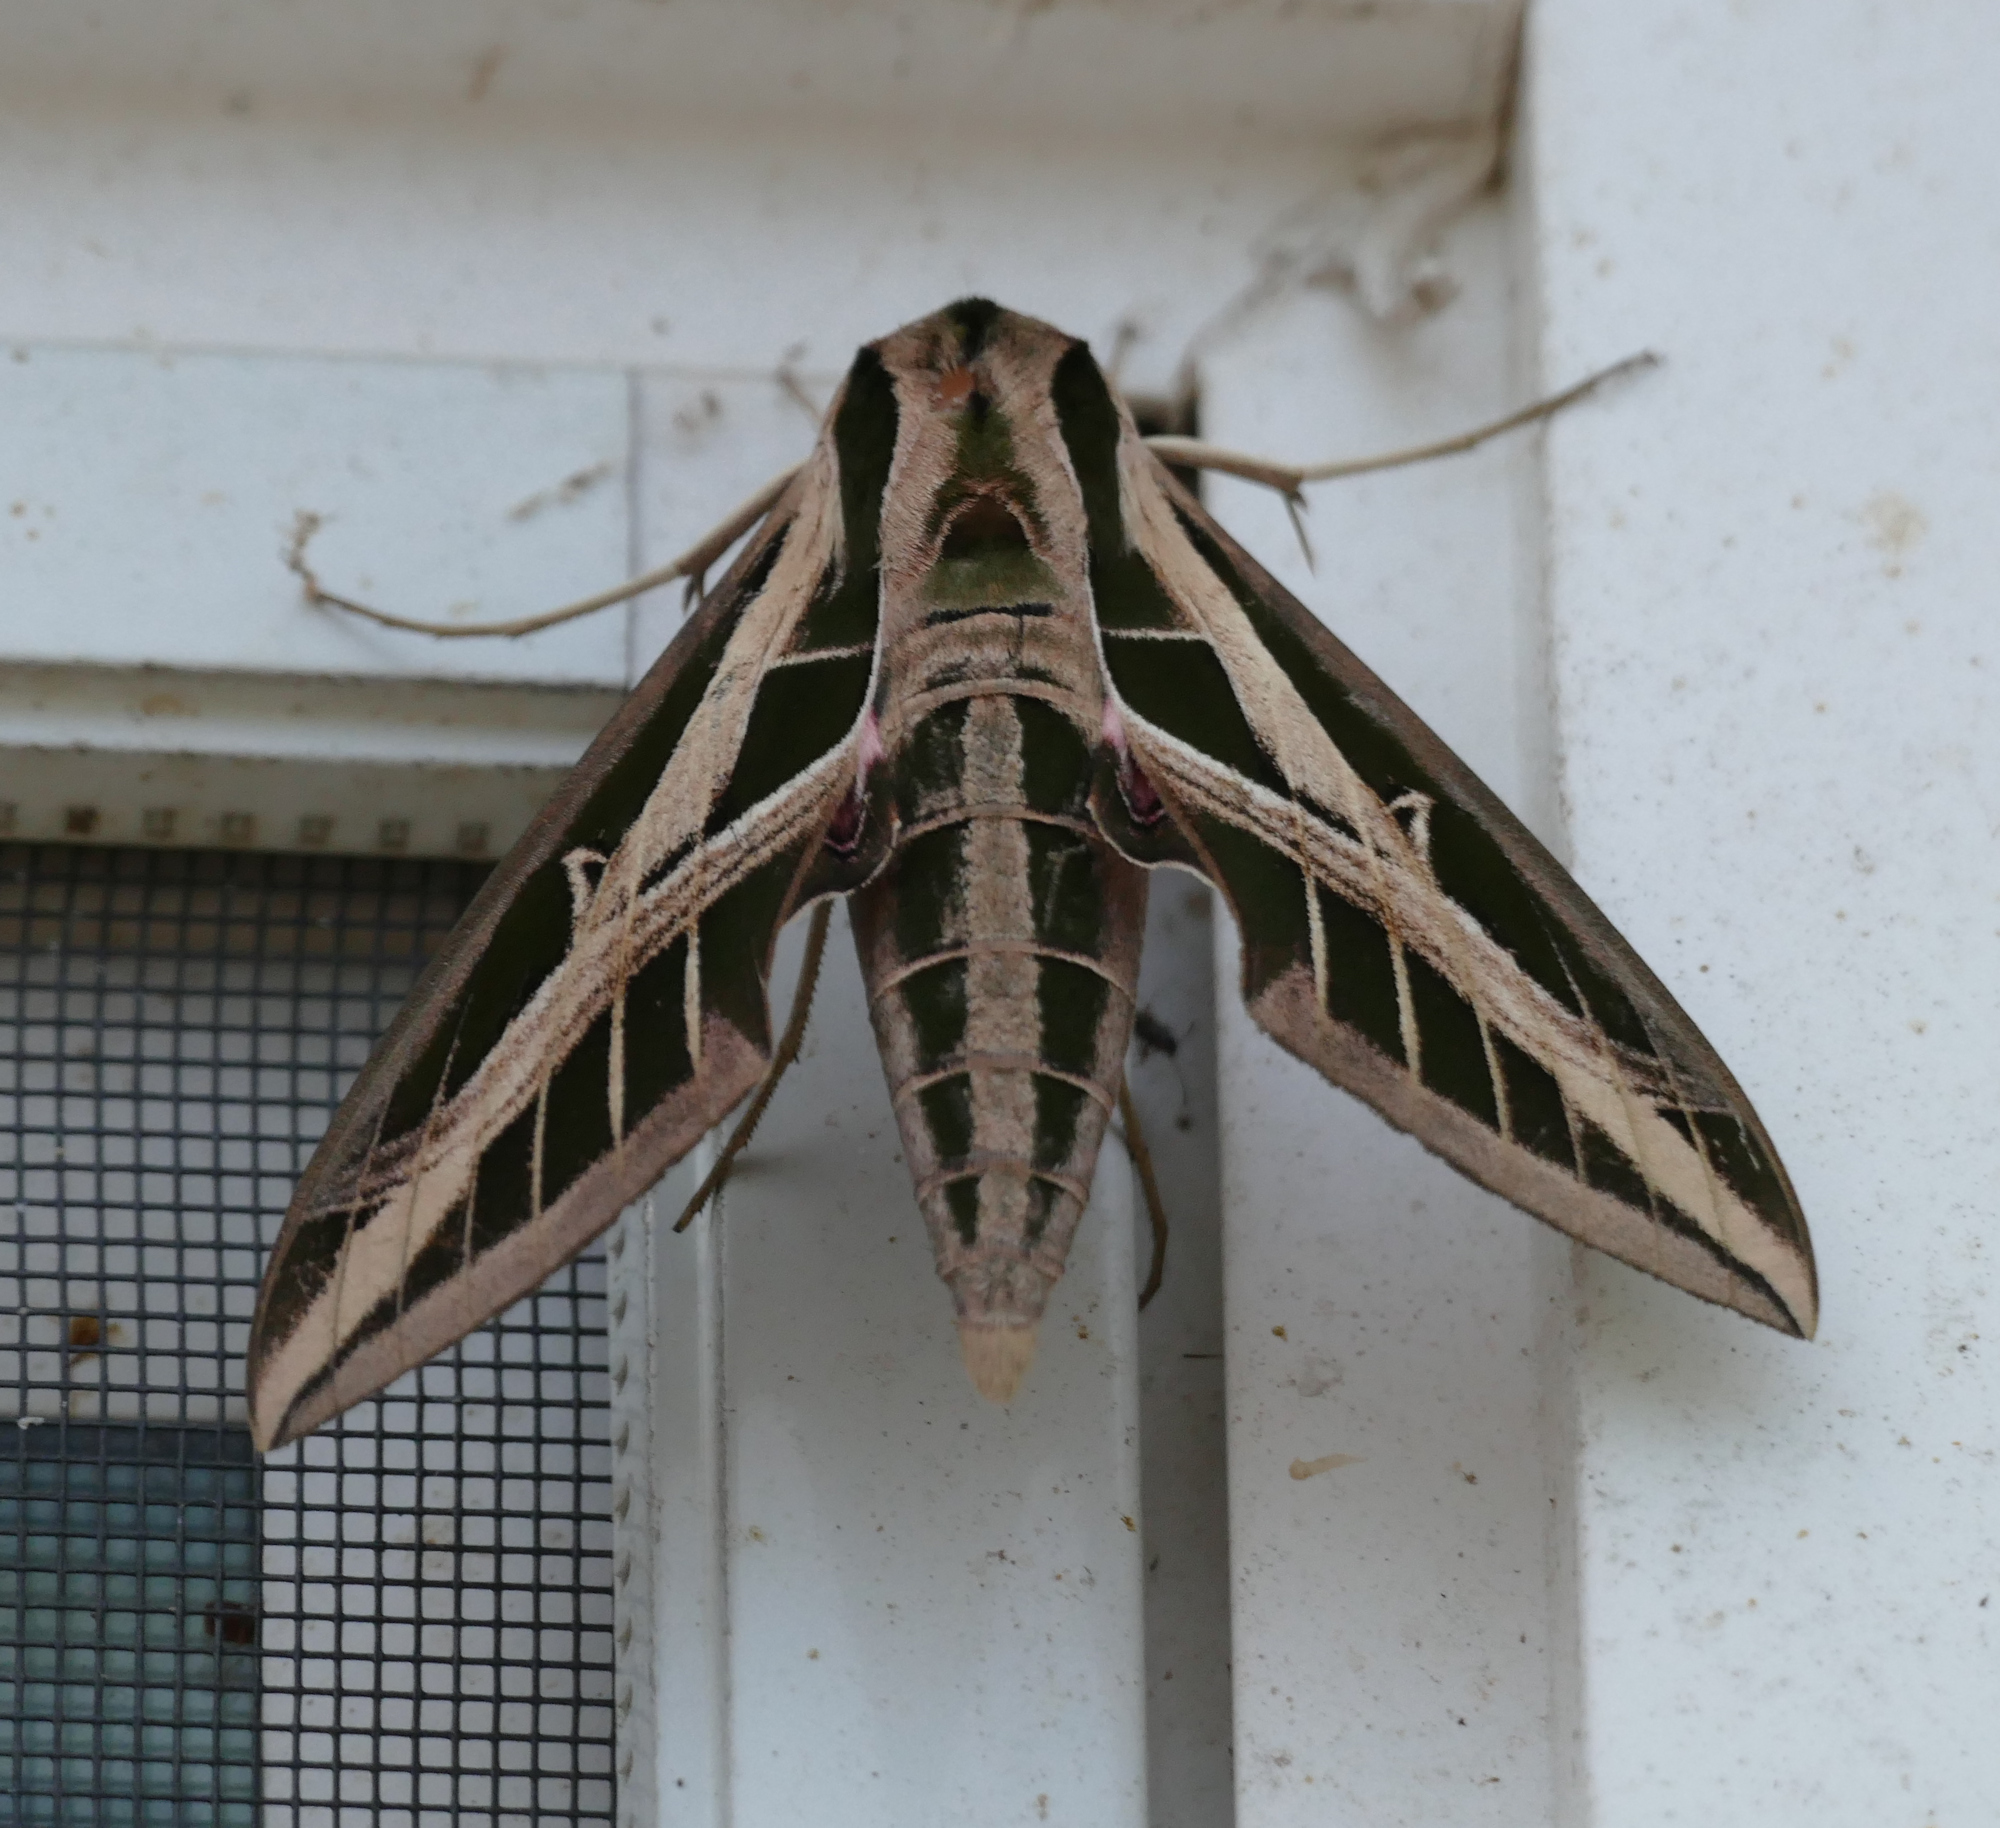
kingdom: Animalia
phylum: Arthropoda
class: Insecta
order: Lepidoptera
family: Sphingidae
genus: Eumorpha
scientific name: Eumorpha fasciatus
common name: Banded sphinx
